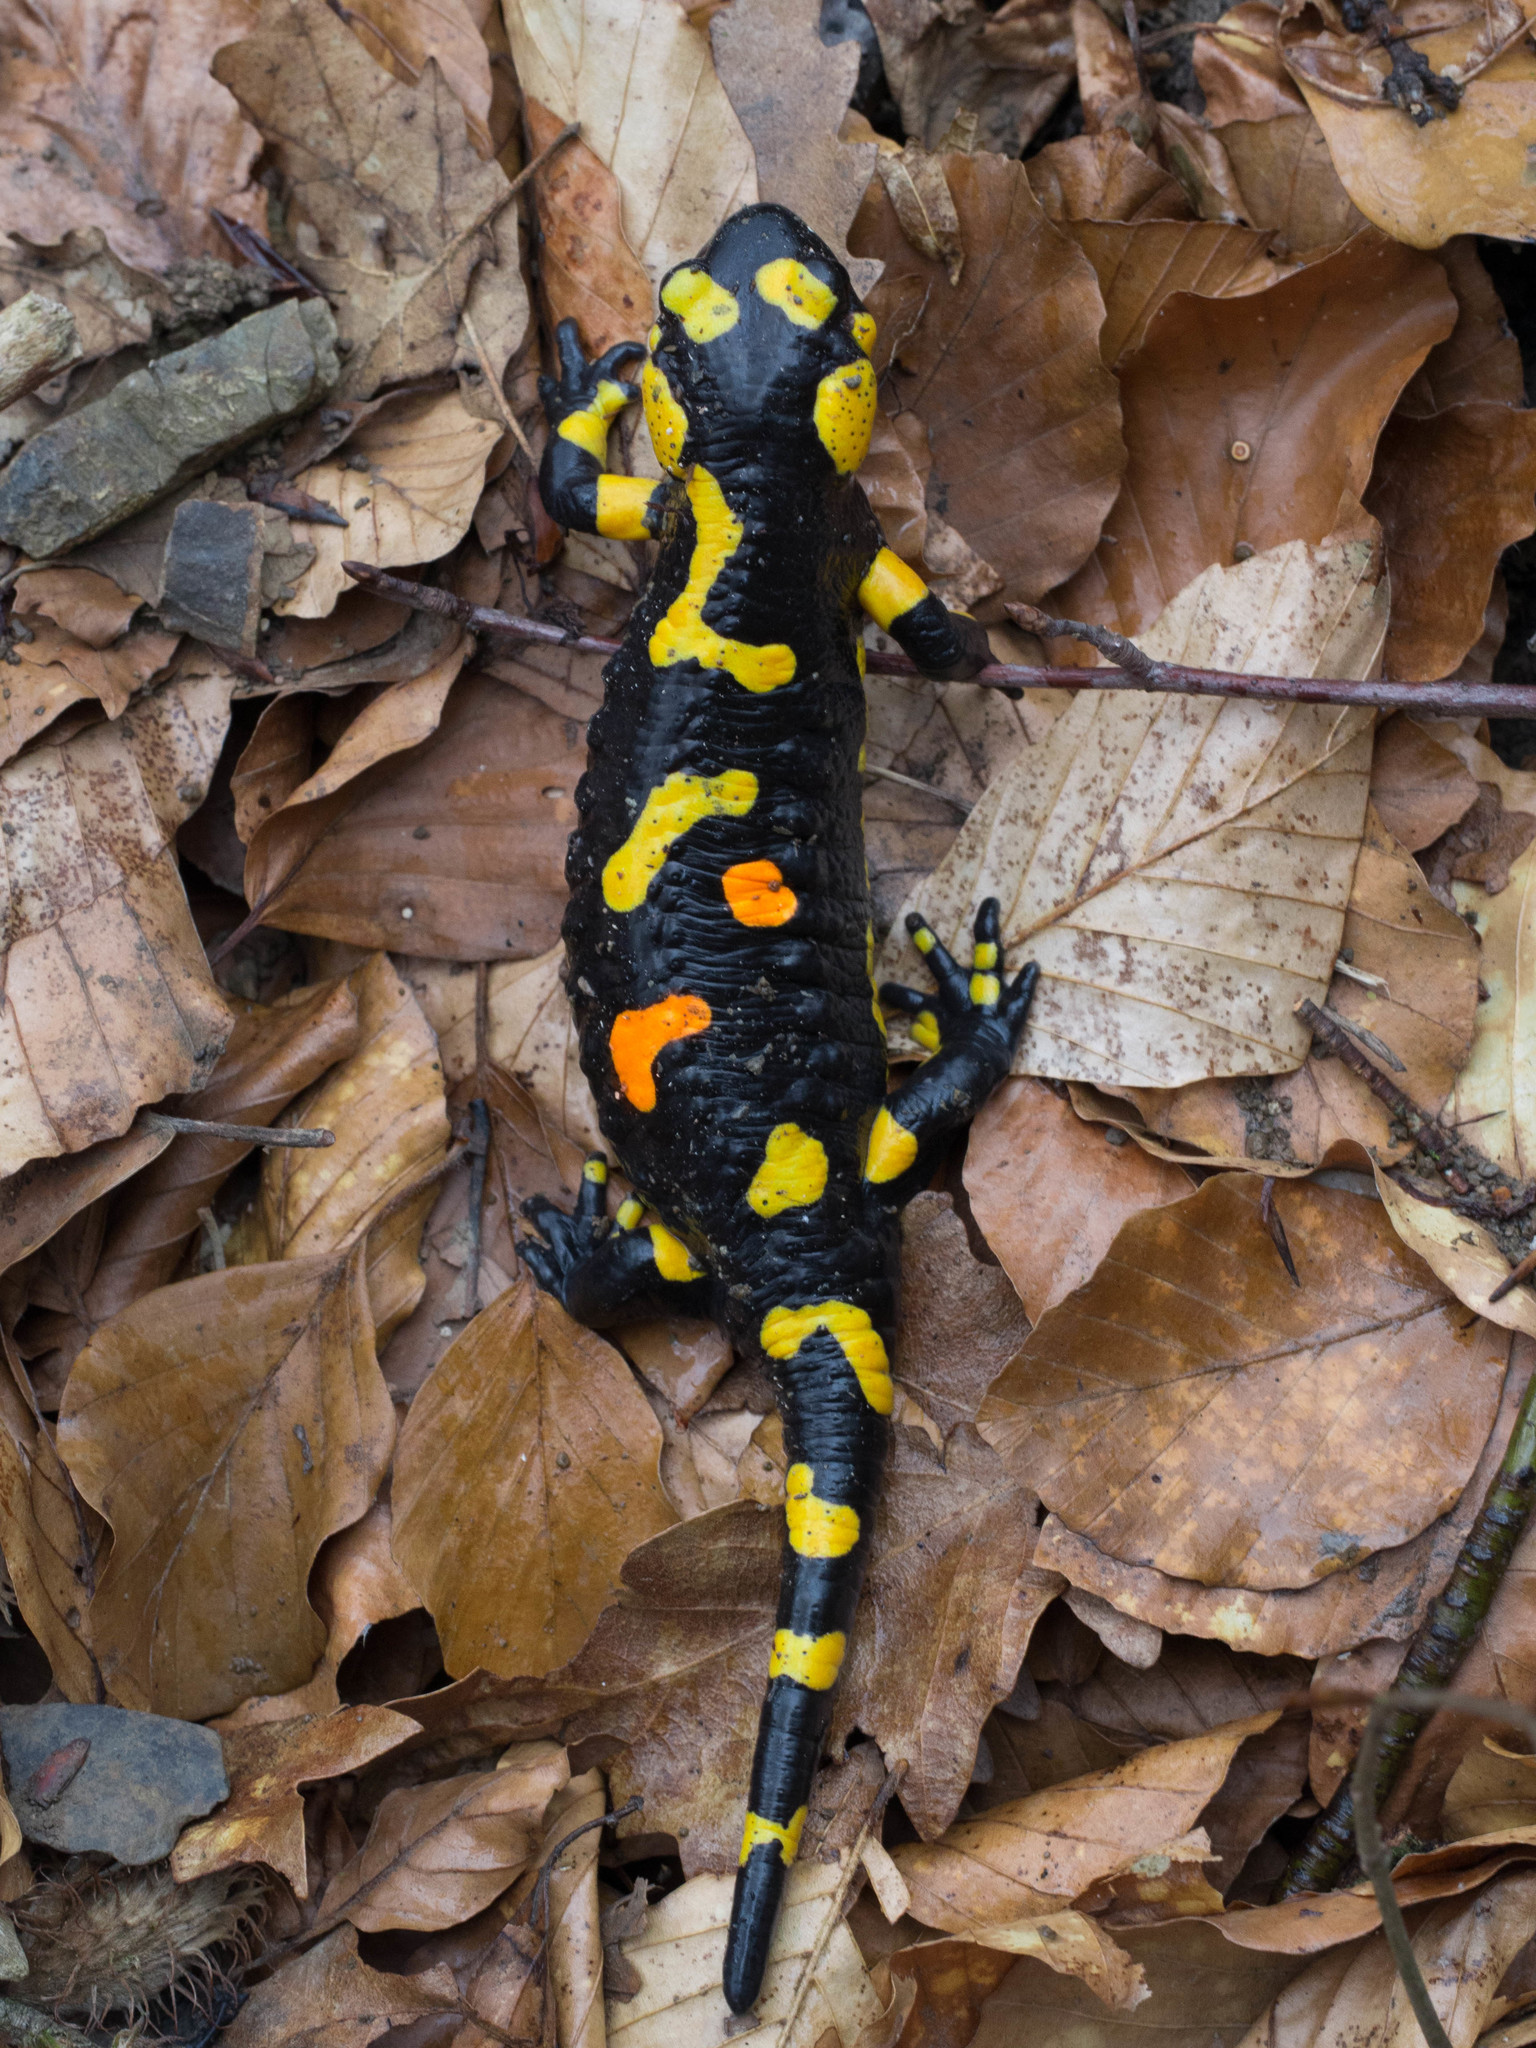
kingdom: Animalia
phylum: Chordata
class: Amphibia
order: Caudata
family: Salamandridae
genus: Salamandra
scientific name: Salamandra salamandra
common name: Fire salamander
